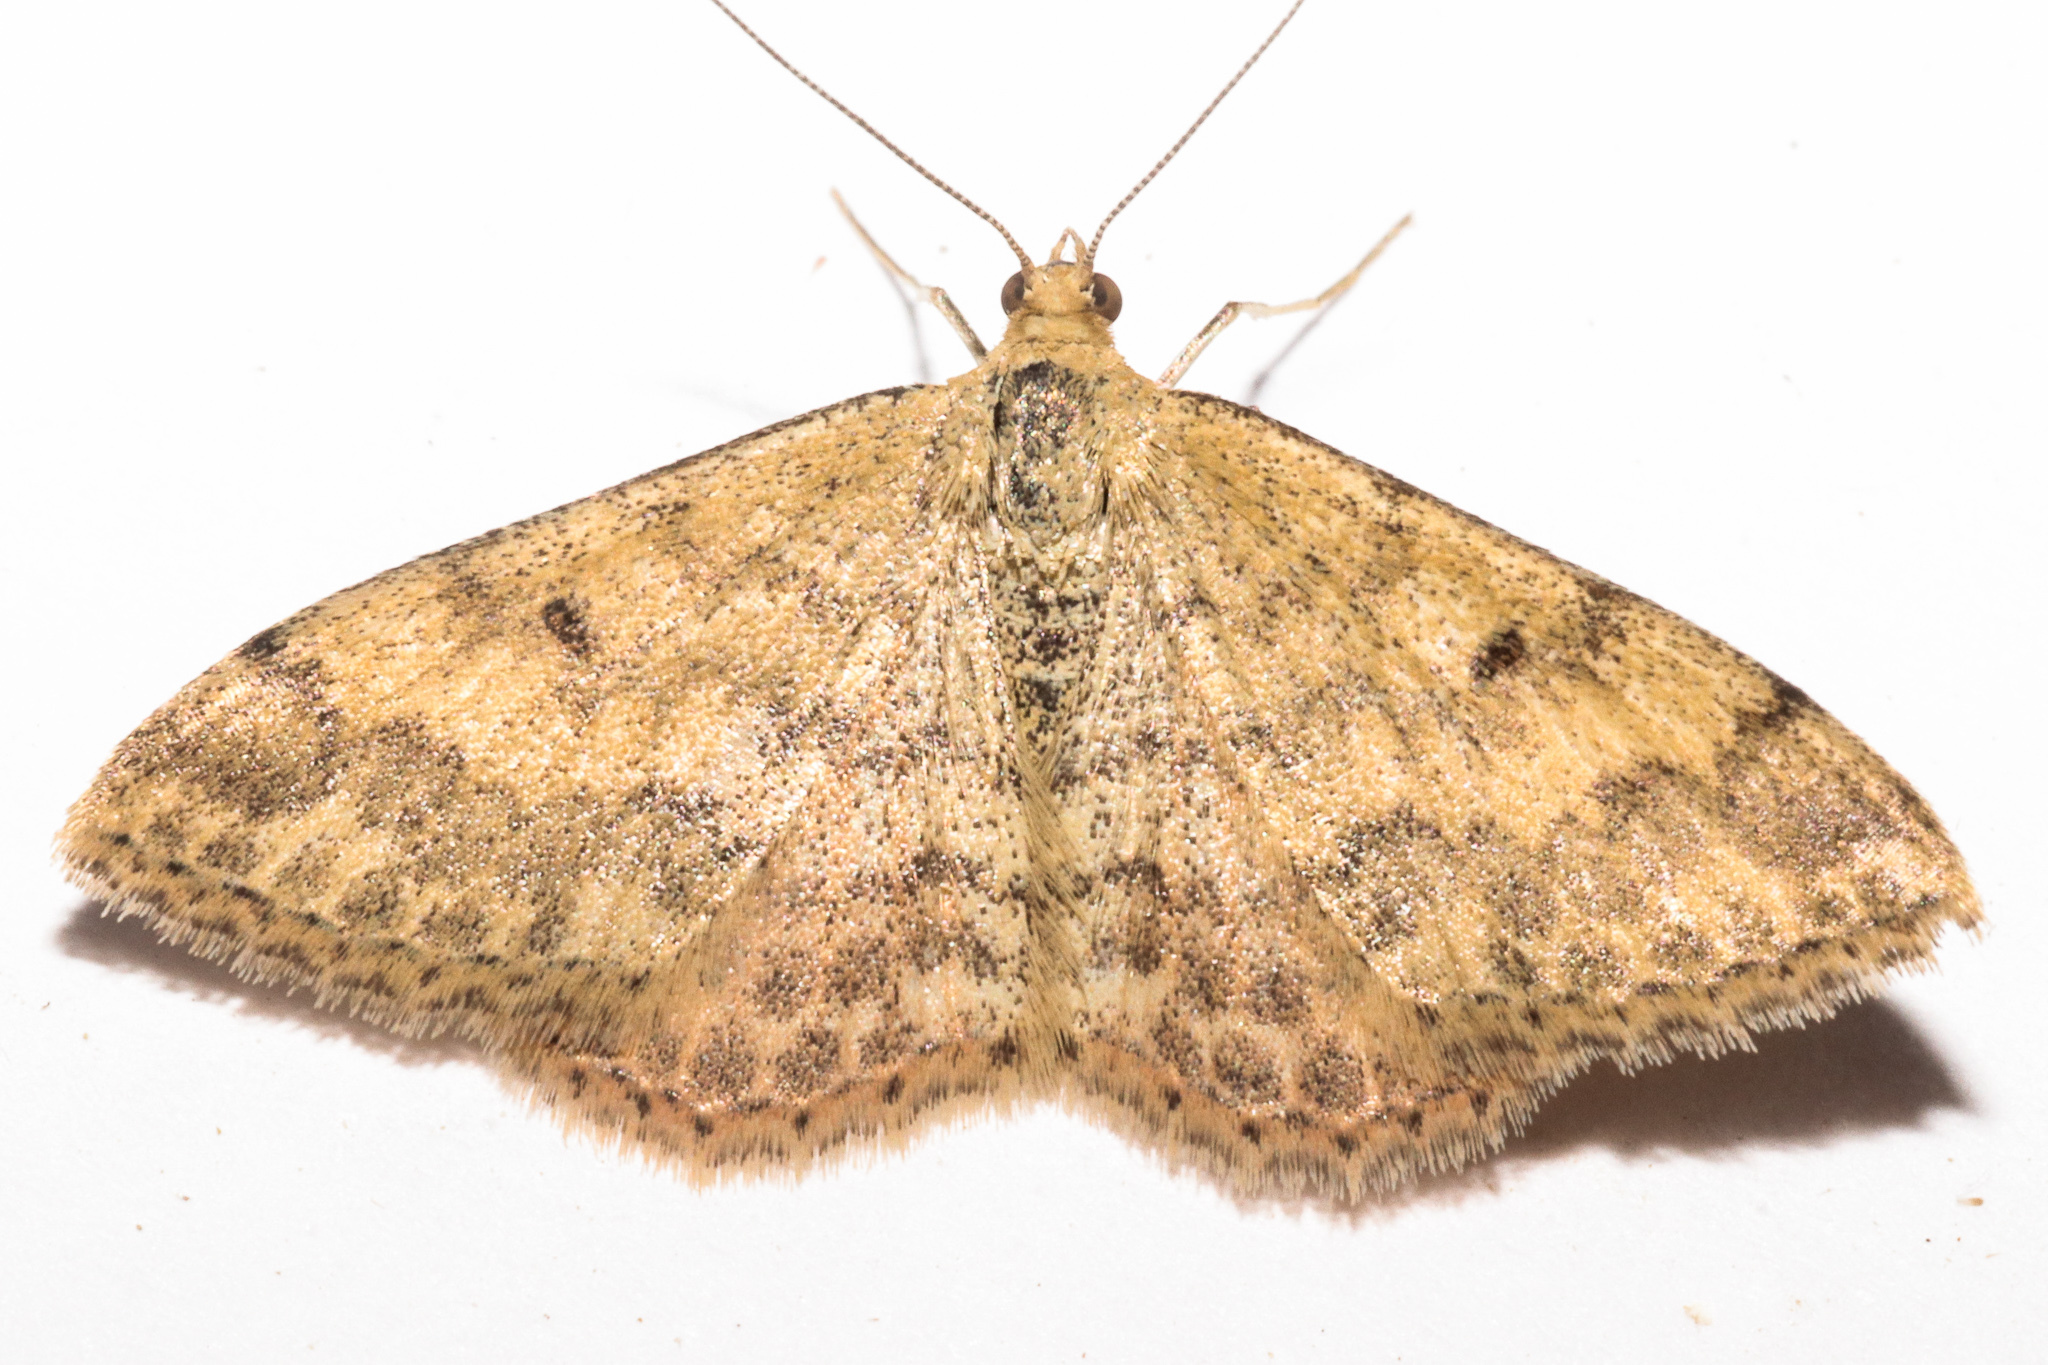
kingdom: Animalia
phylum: Arthropoda
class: Insecta
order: Lepidoptera
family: Geometridae
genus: Scopula
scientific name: Scopula rubraria
